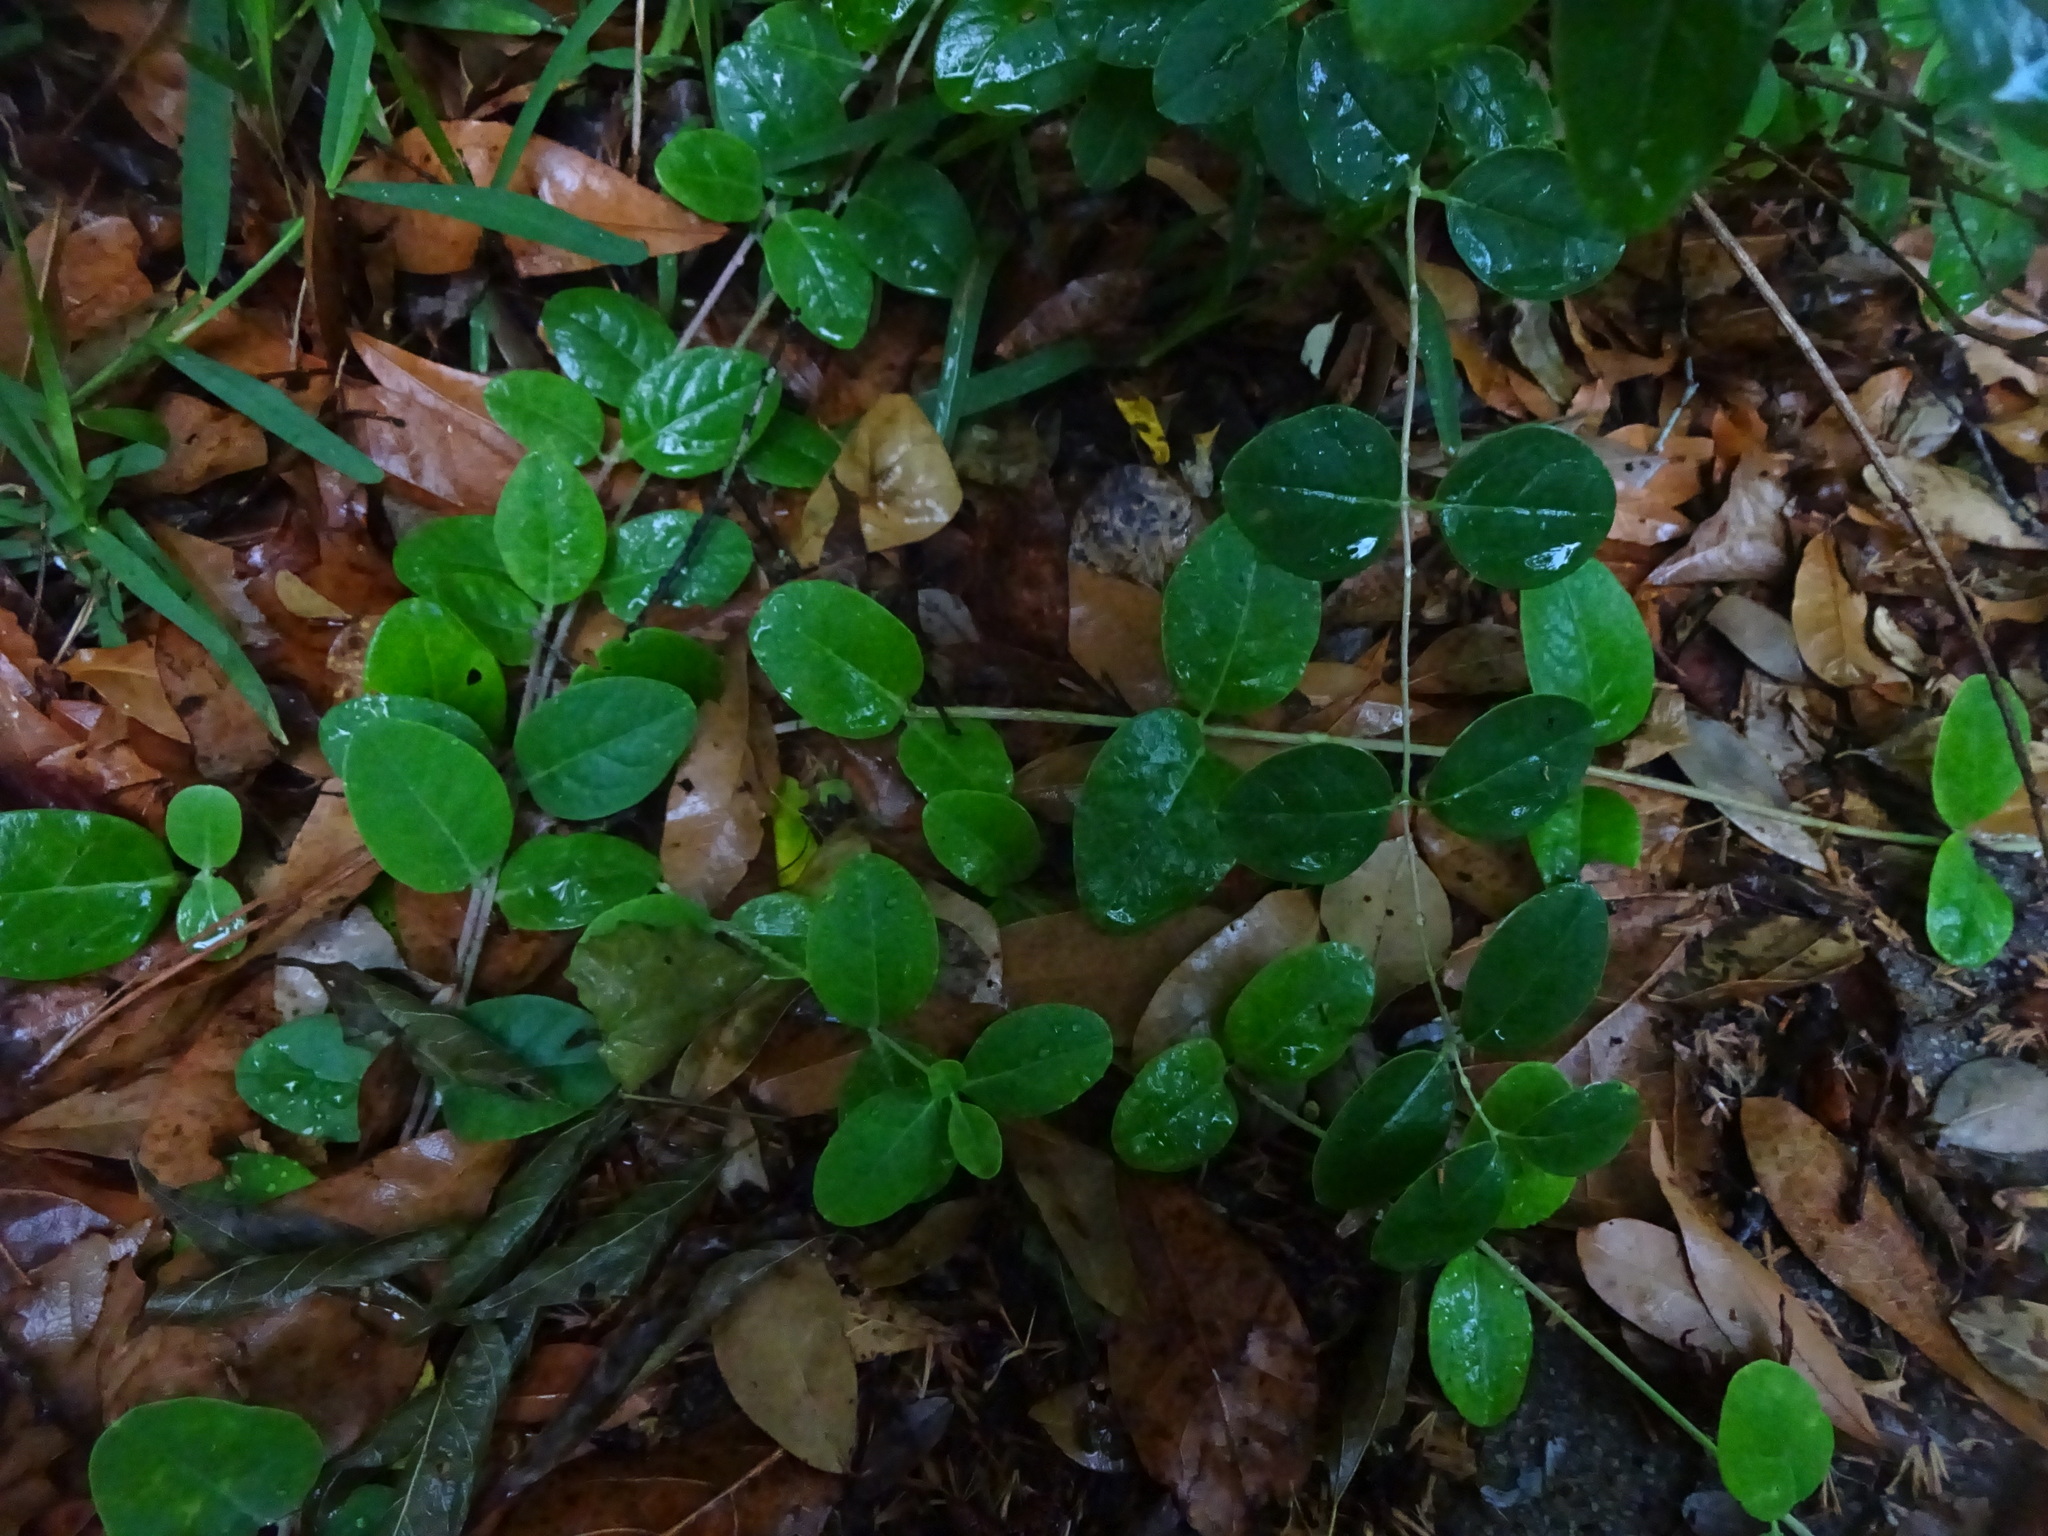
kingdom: Plantae
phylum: Tracheophyta
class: Magnoliopsida
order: Dipsacales
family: Caprifoliaceae
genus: Lonicera
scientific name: Lonicera sempervirens
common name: Coral honeysuckle
